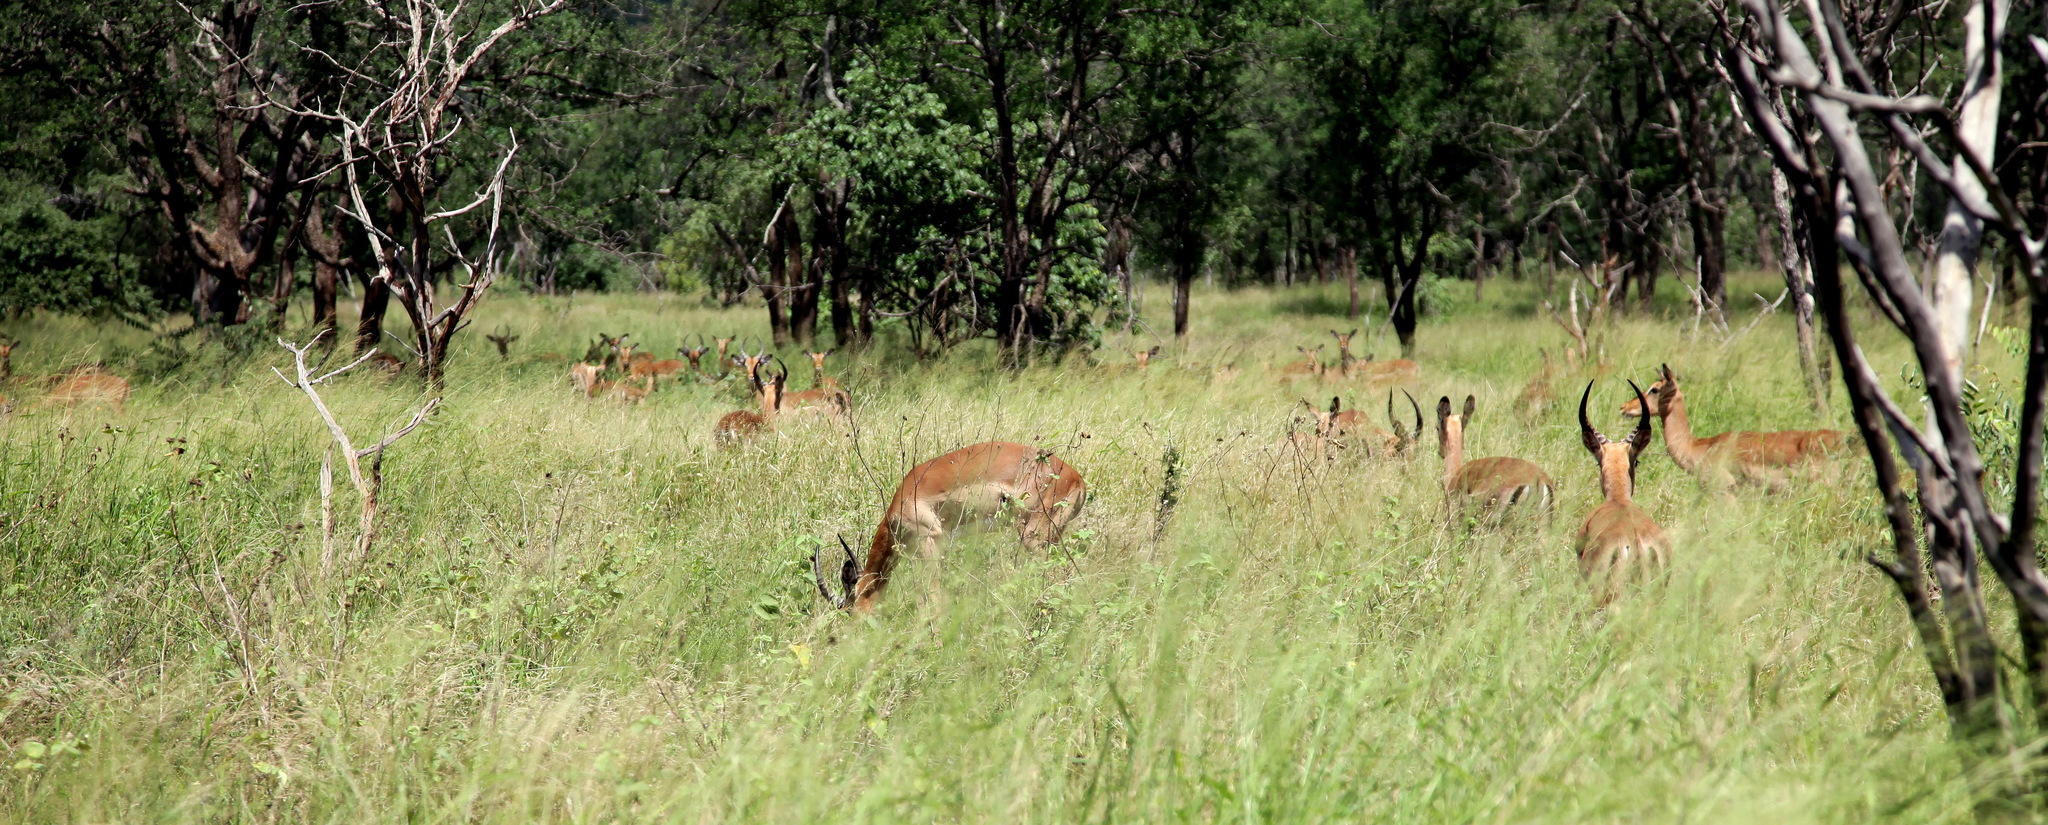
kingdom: Animalia
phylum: Chordata
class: Mammalia
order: Artiodactyla
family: Bovidae
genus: Aepyceros
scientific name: Aepyceros melampus
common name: Impala
